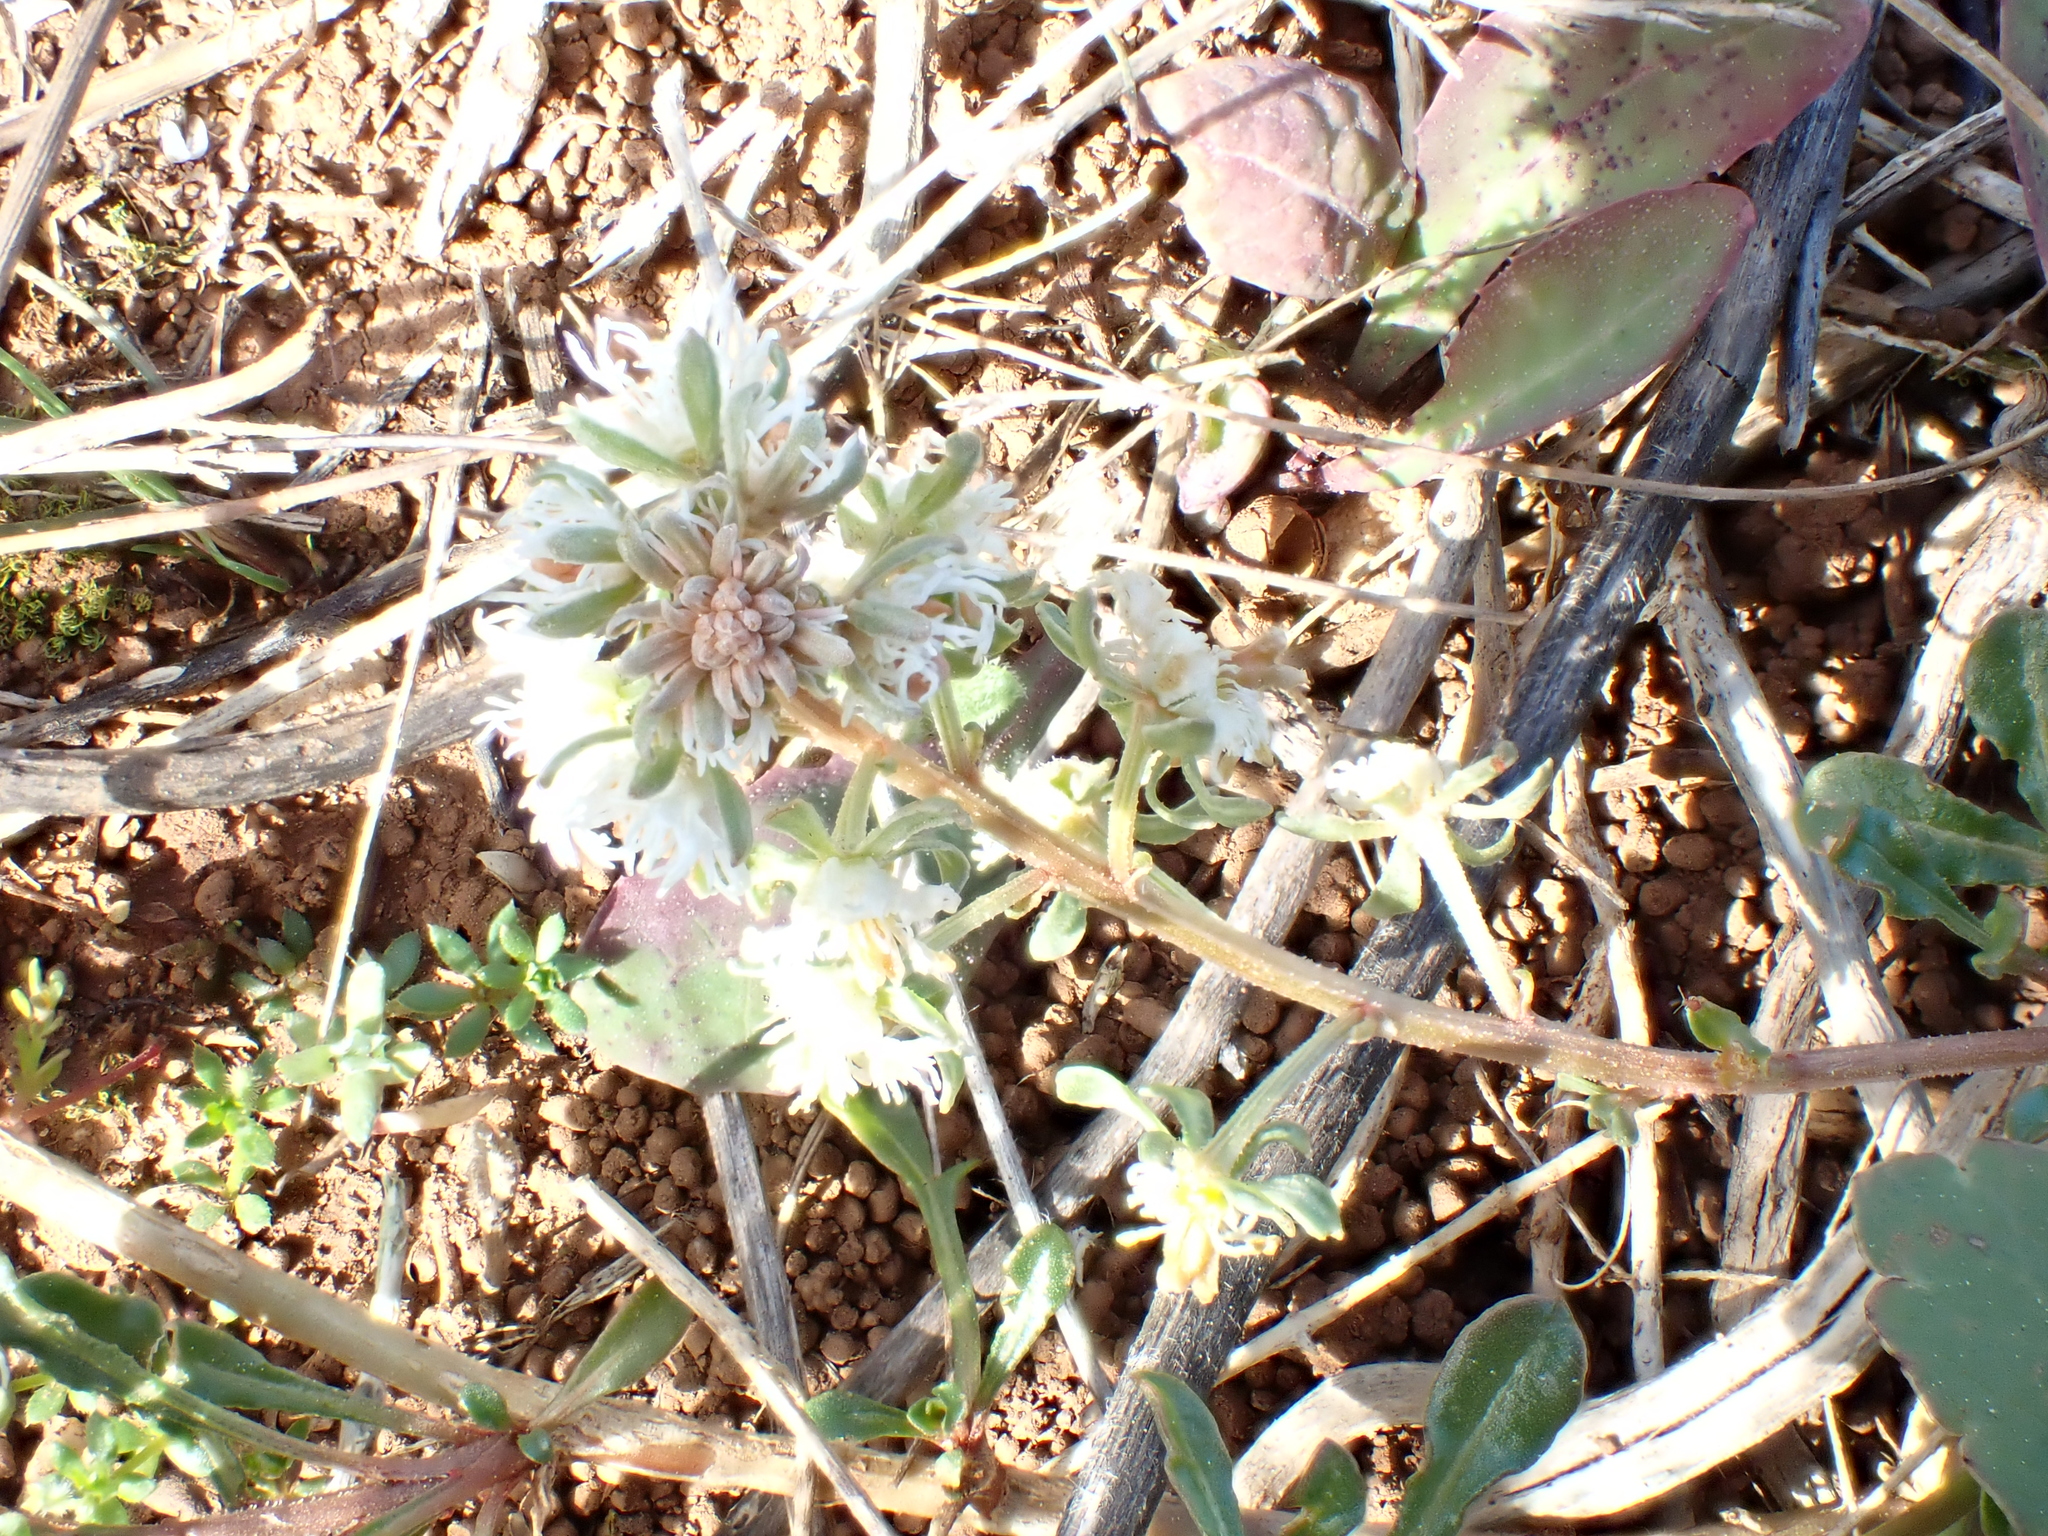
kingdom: Plantae
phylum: Tracheophyta
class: Magnoliopsida
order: Brassicales
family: Resedaceae
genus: Reseda
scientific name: Reseda phyteuma
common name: Corn mignonette
